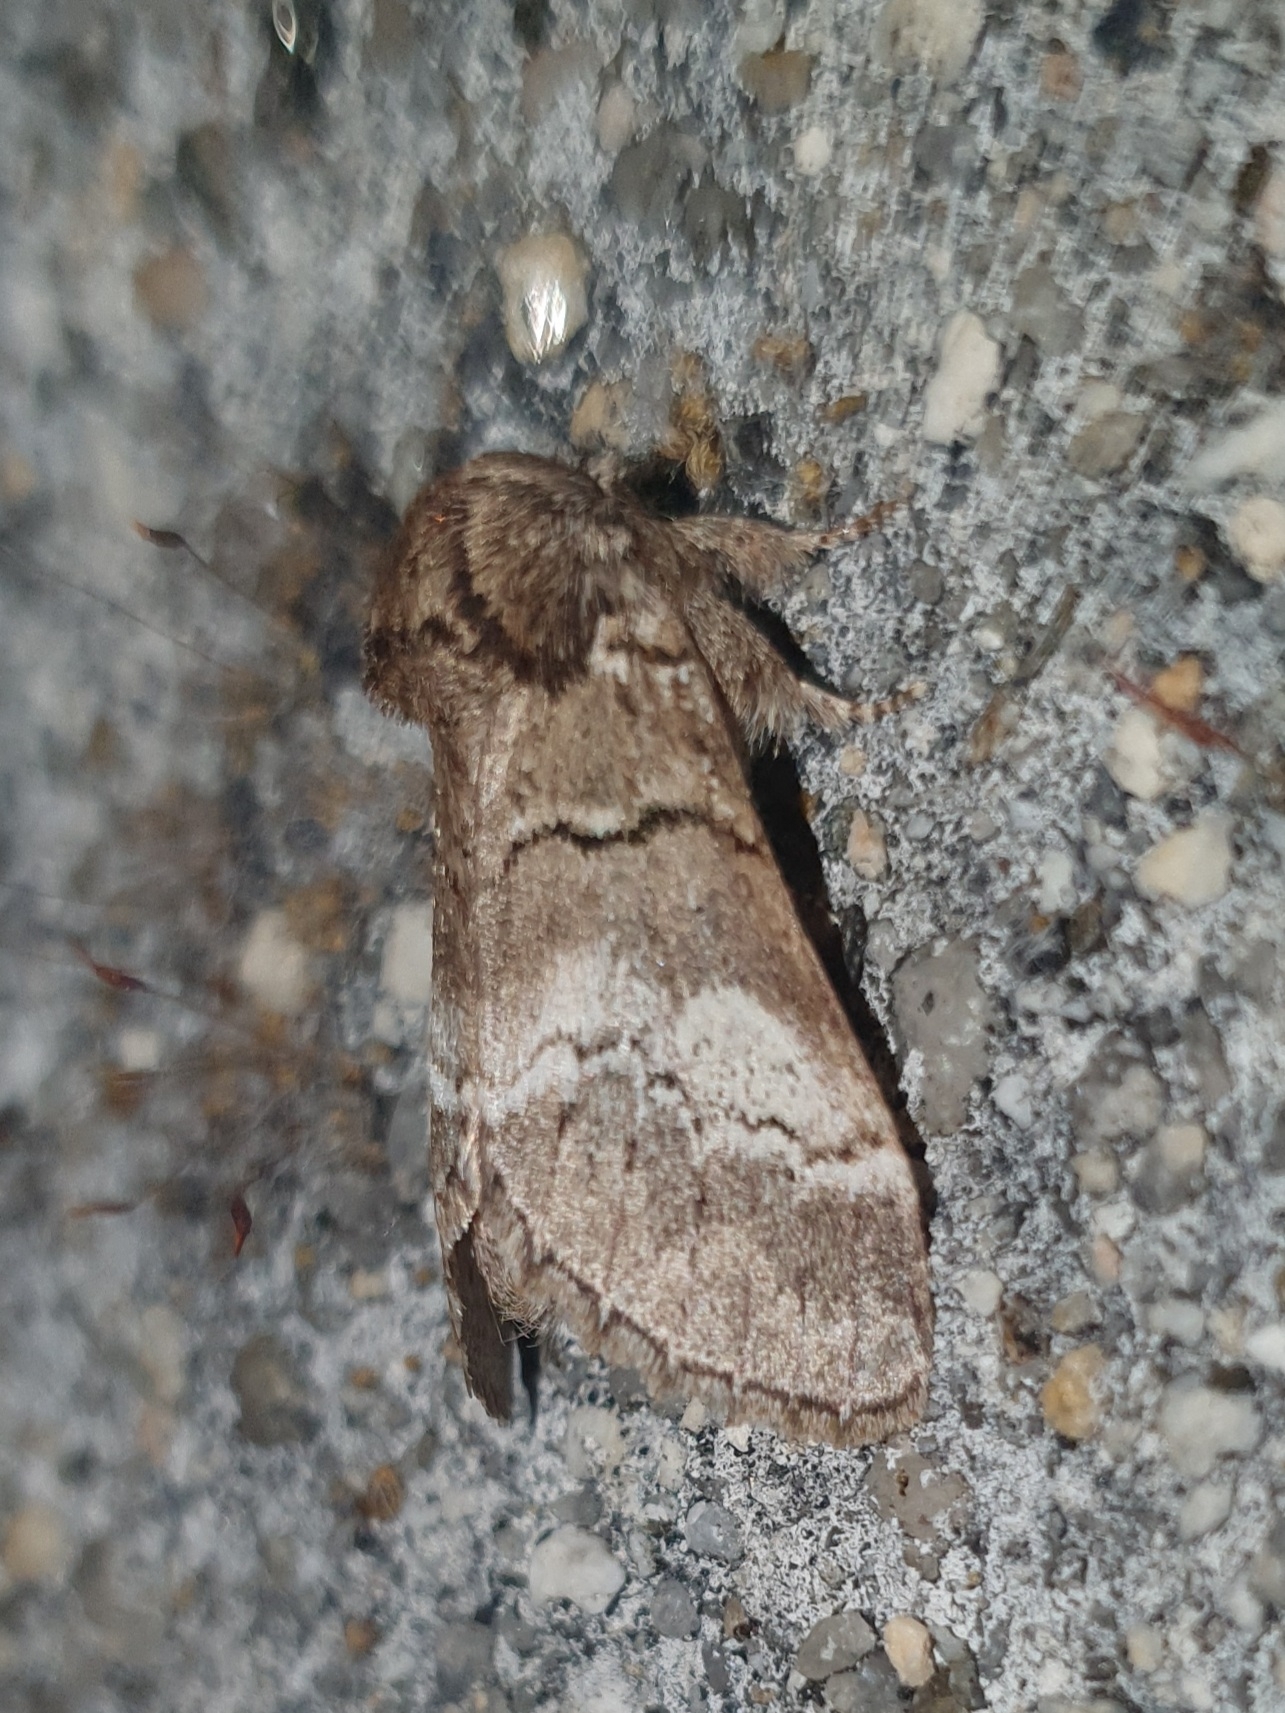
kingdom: Animalia
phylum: Arthropoda
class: Insecta
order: Lepidoptera
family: Notodontidae
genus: Drymonia
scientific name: Drymonia querna
